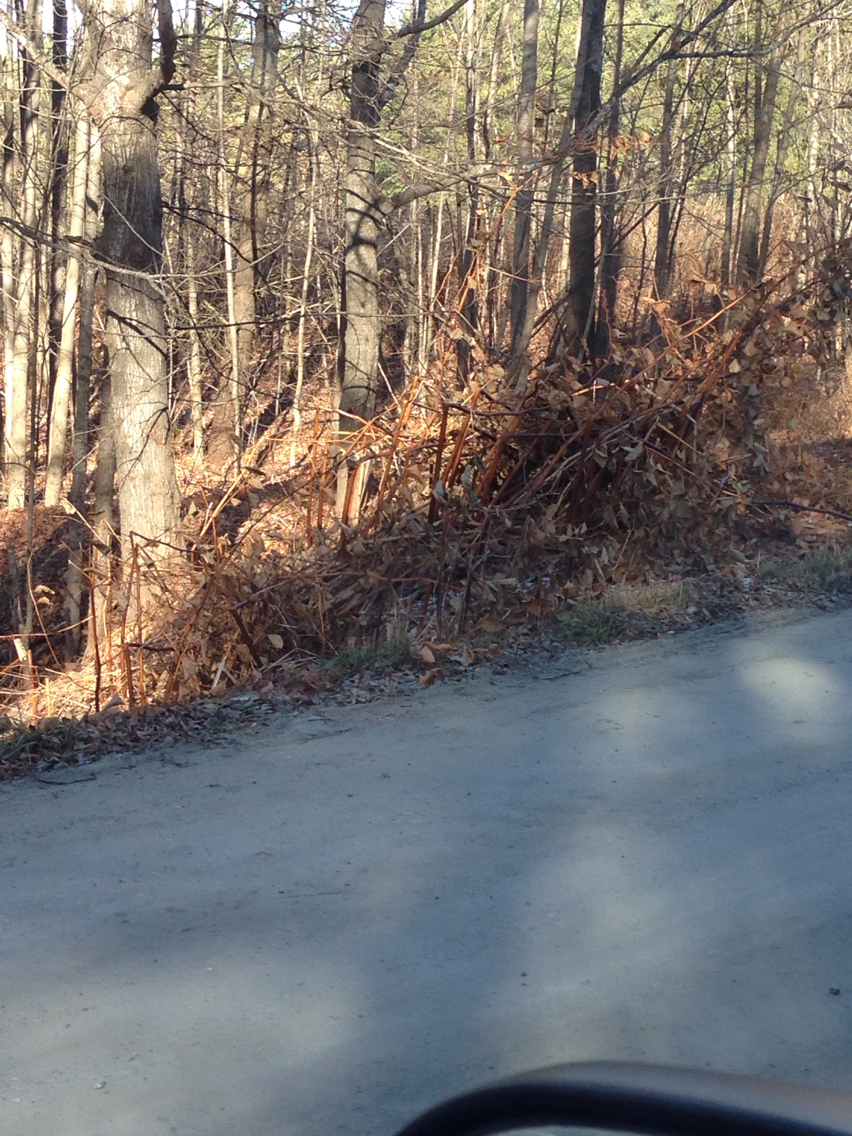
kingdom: Plantae
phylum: Tracheophyta
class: Magnoliopsida
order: Caryophyllales
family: Polygonaceae
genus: Reynoutria
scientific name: Reynoutria japonica
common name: Japanese knotweed
